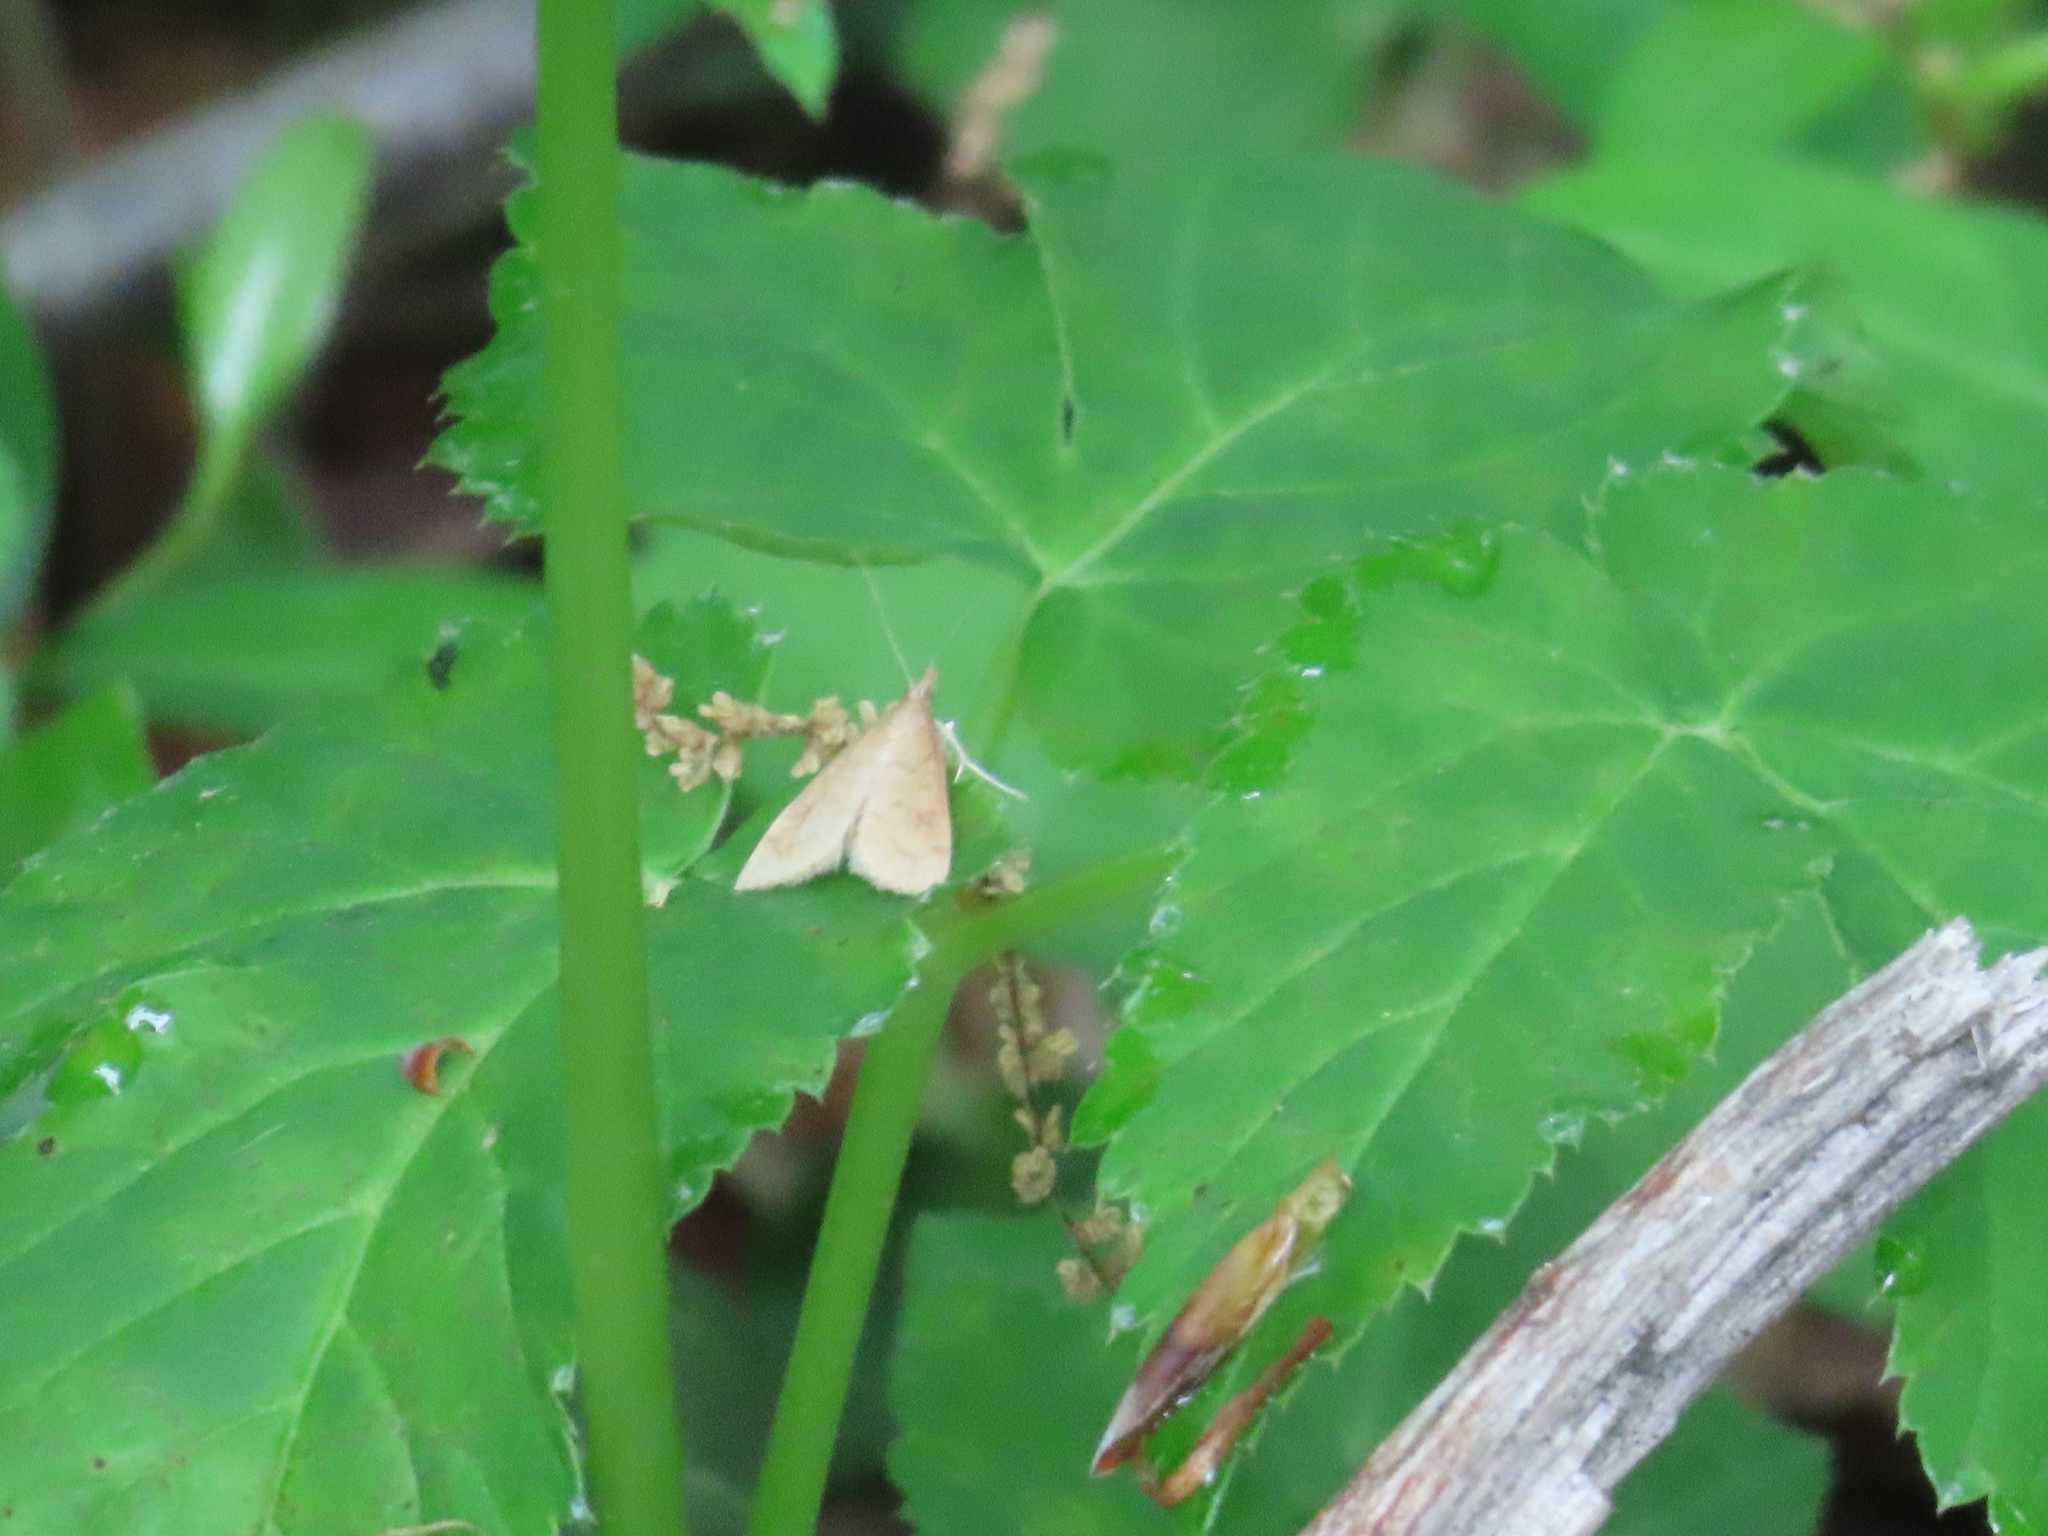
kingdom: Animalia
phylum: Arthropoda
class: Insecta
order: Lepidoptera
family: Crambidae
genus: Udea
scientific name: Udea rubigalis
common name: Celery leaftier moth
